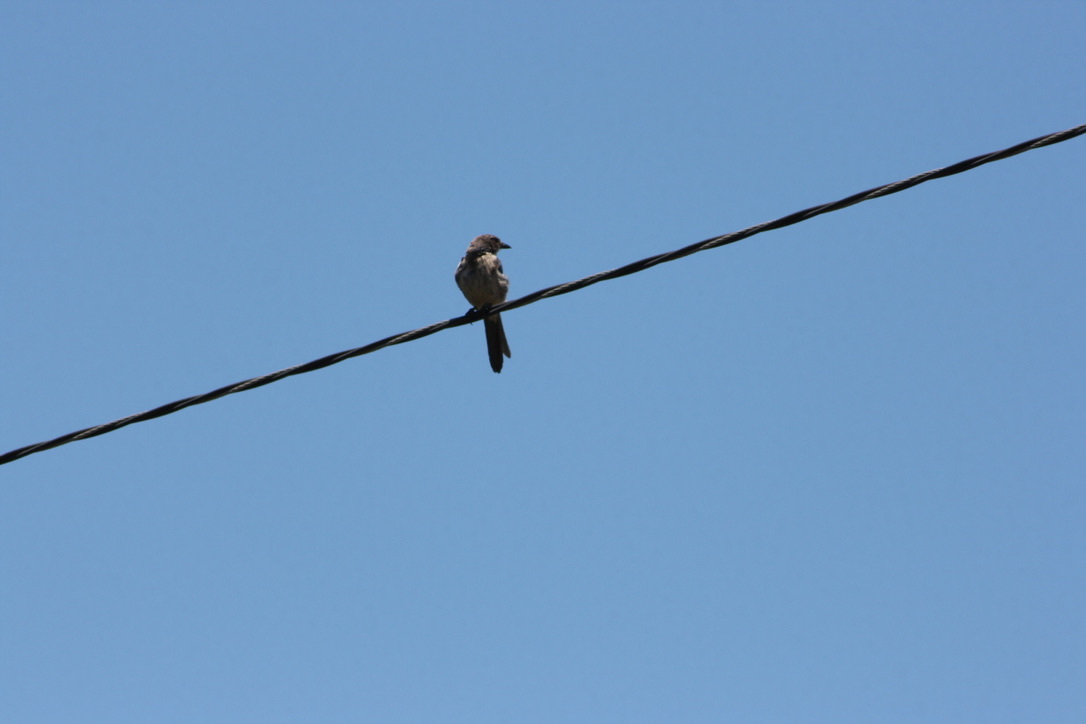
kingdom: Animalia
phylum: Chordata
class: Aves
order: Passeriformes
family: Mimidae
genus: Mimus
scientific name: Mimus polyglottos
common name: Northern mockingbird
